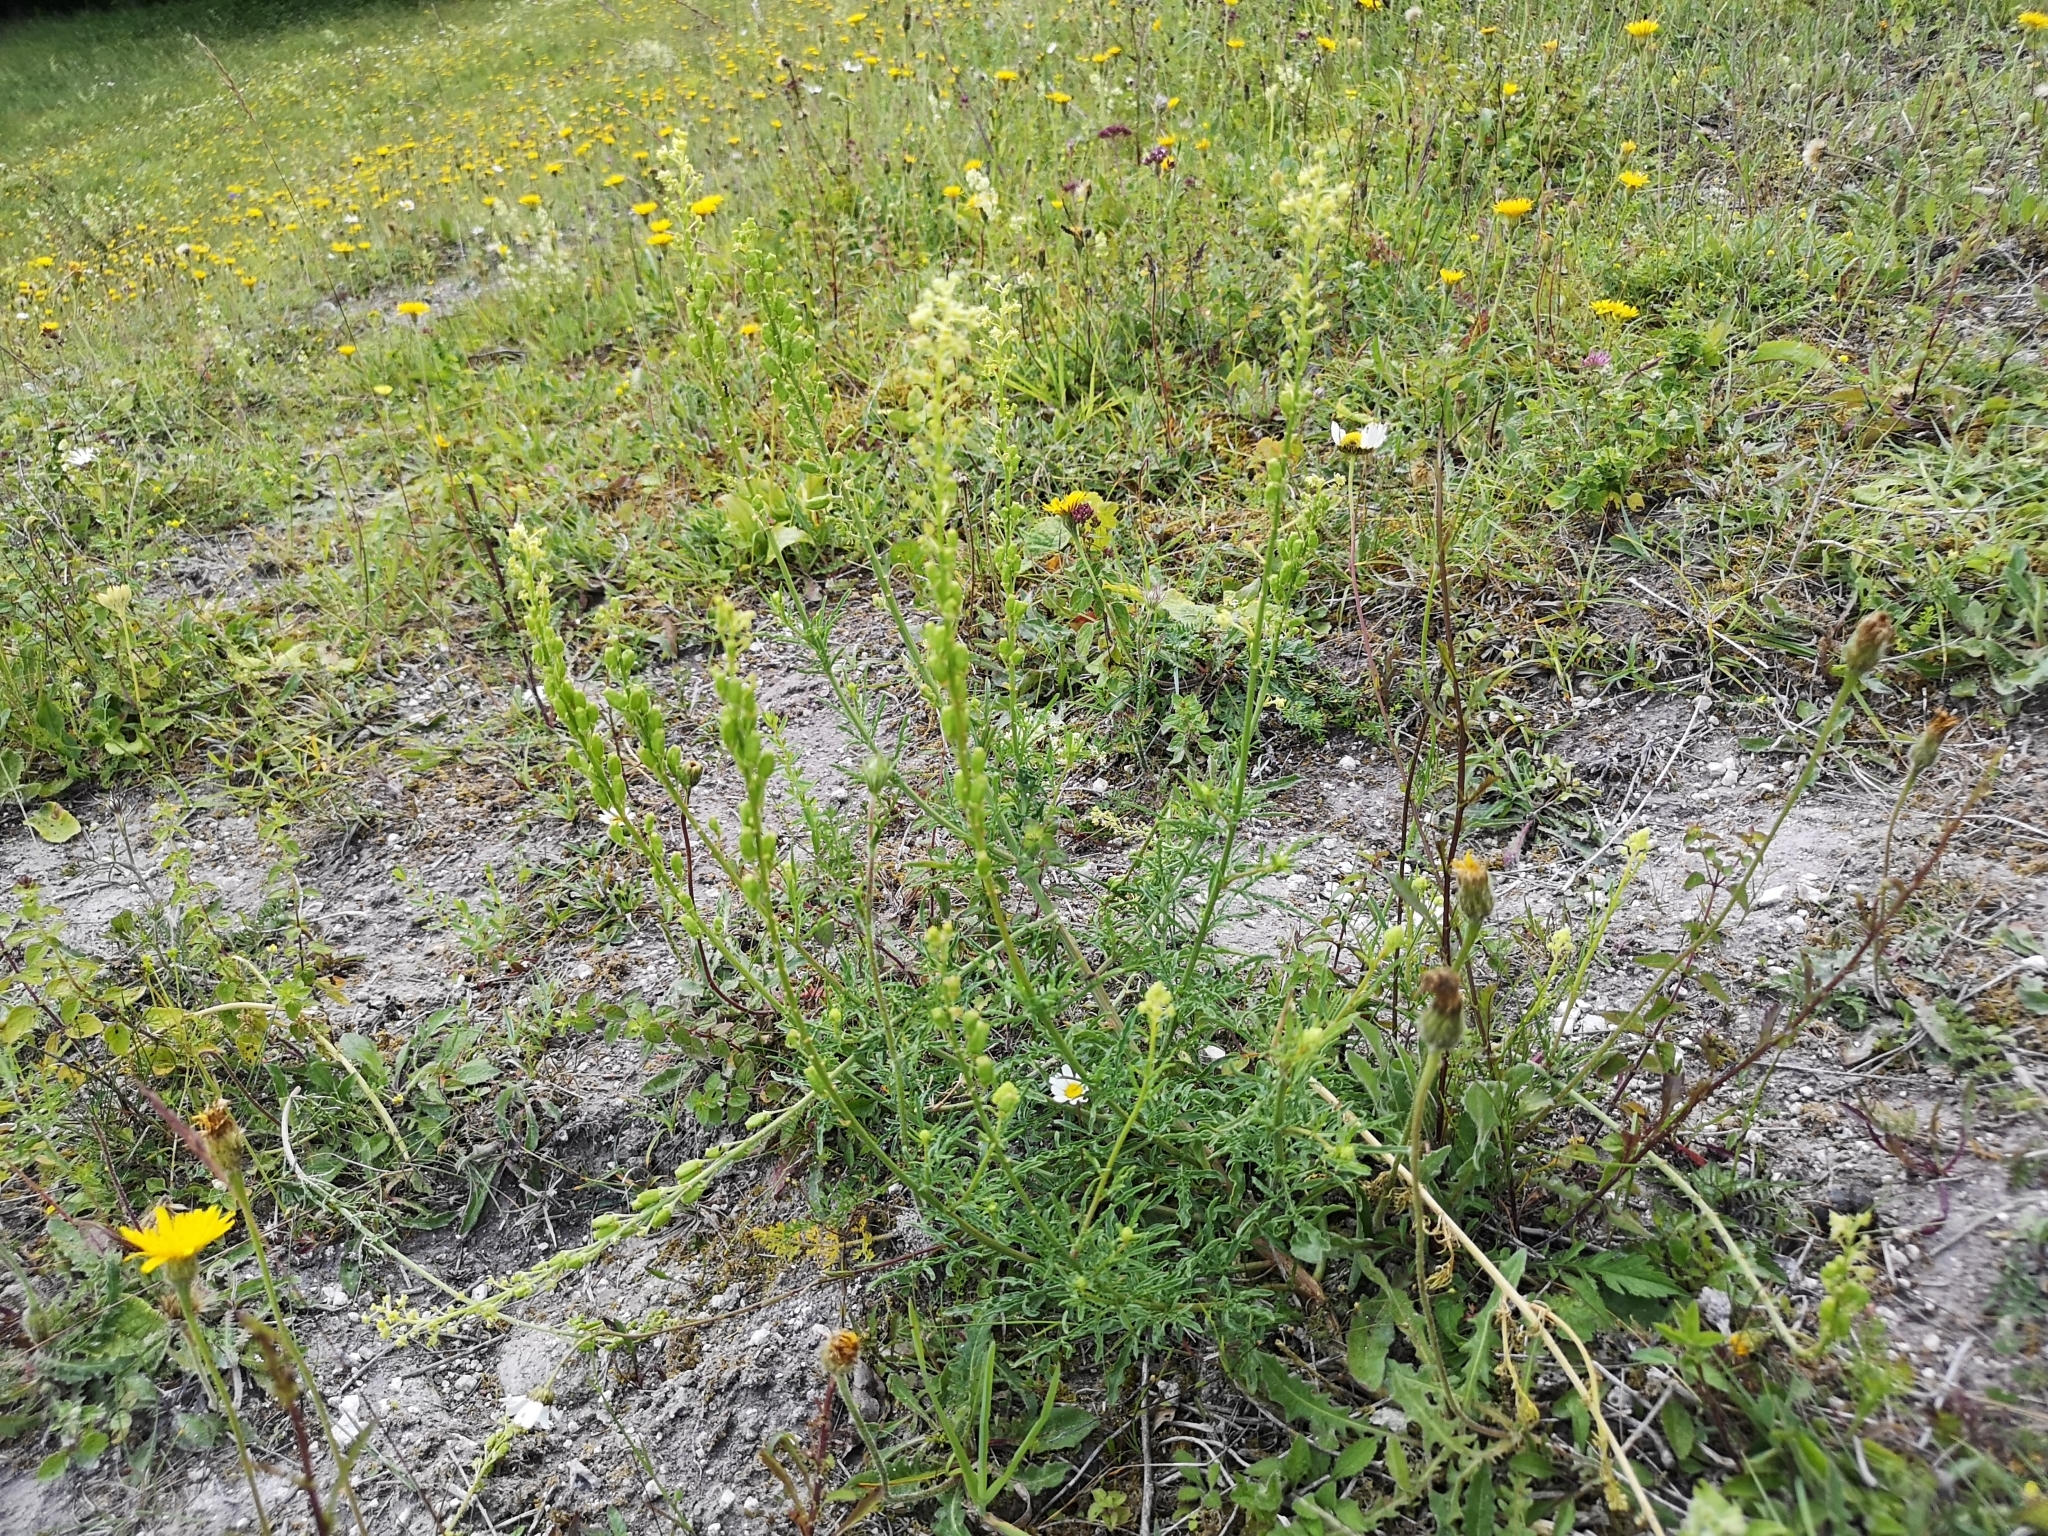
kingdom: Plantae
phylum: Tracheophyta
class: Magnoliopsida
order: Brassicales
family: Resedaceae
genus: Reseda
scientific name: Reseda lutea
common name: Wild mignonette
